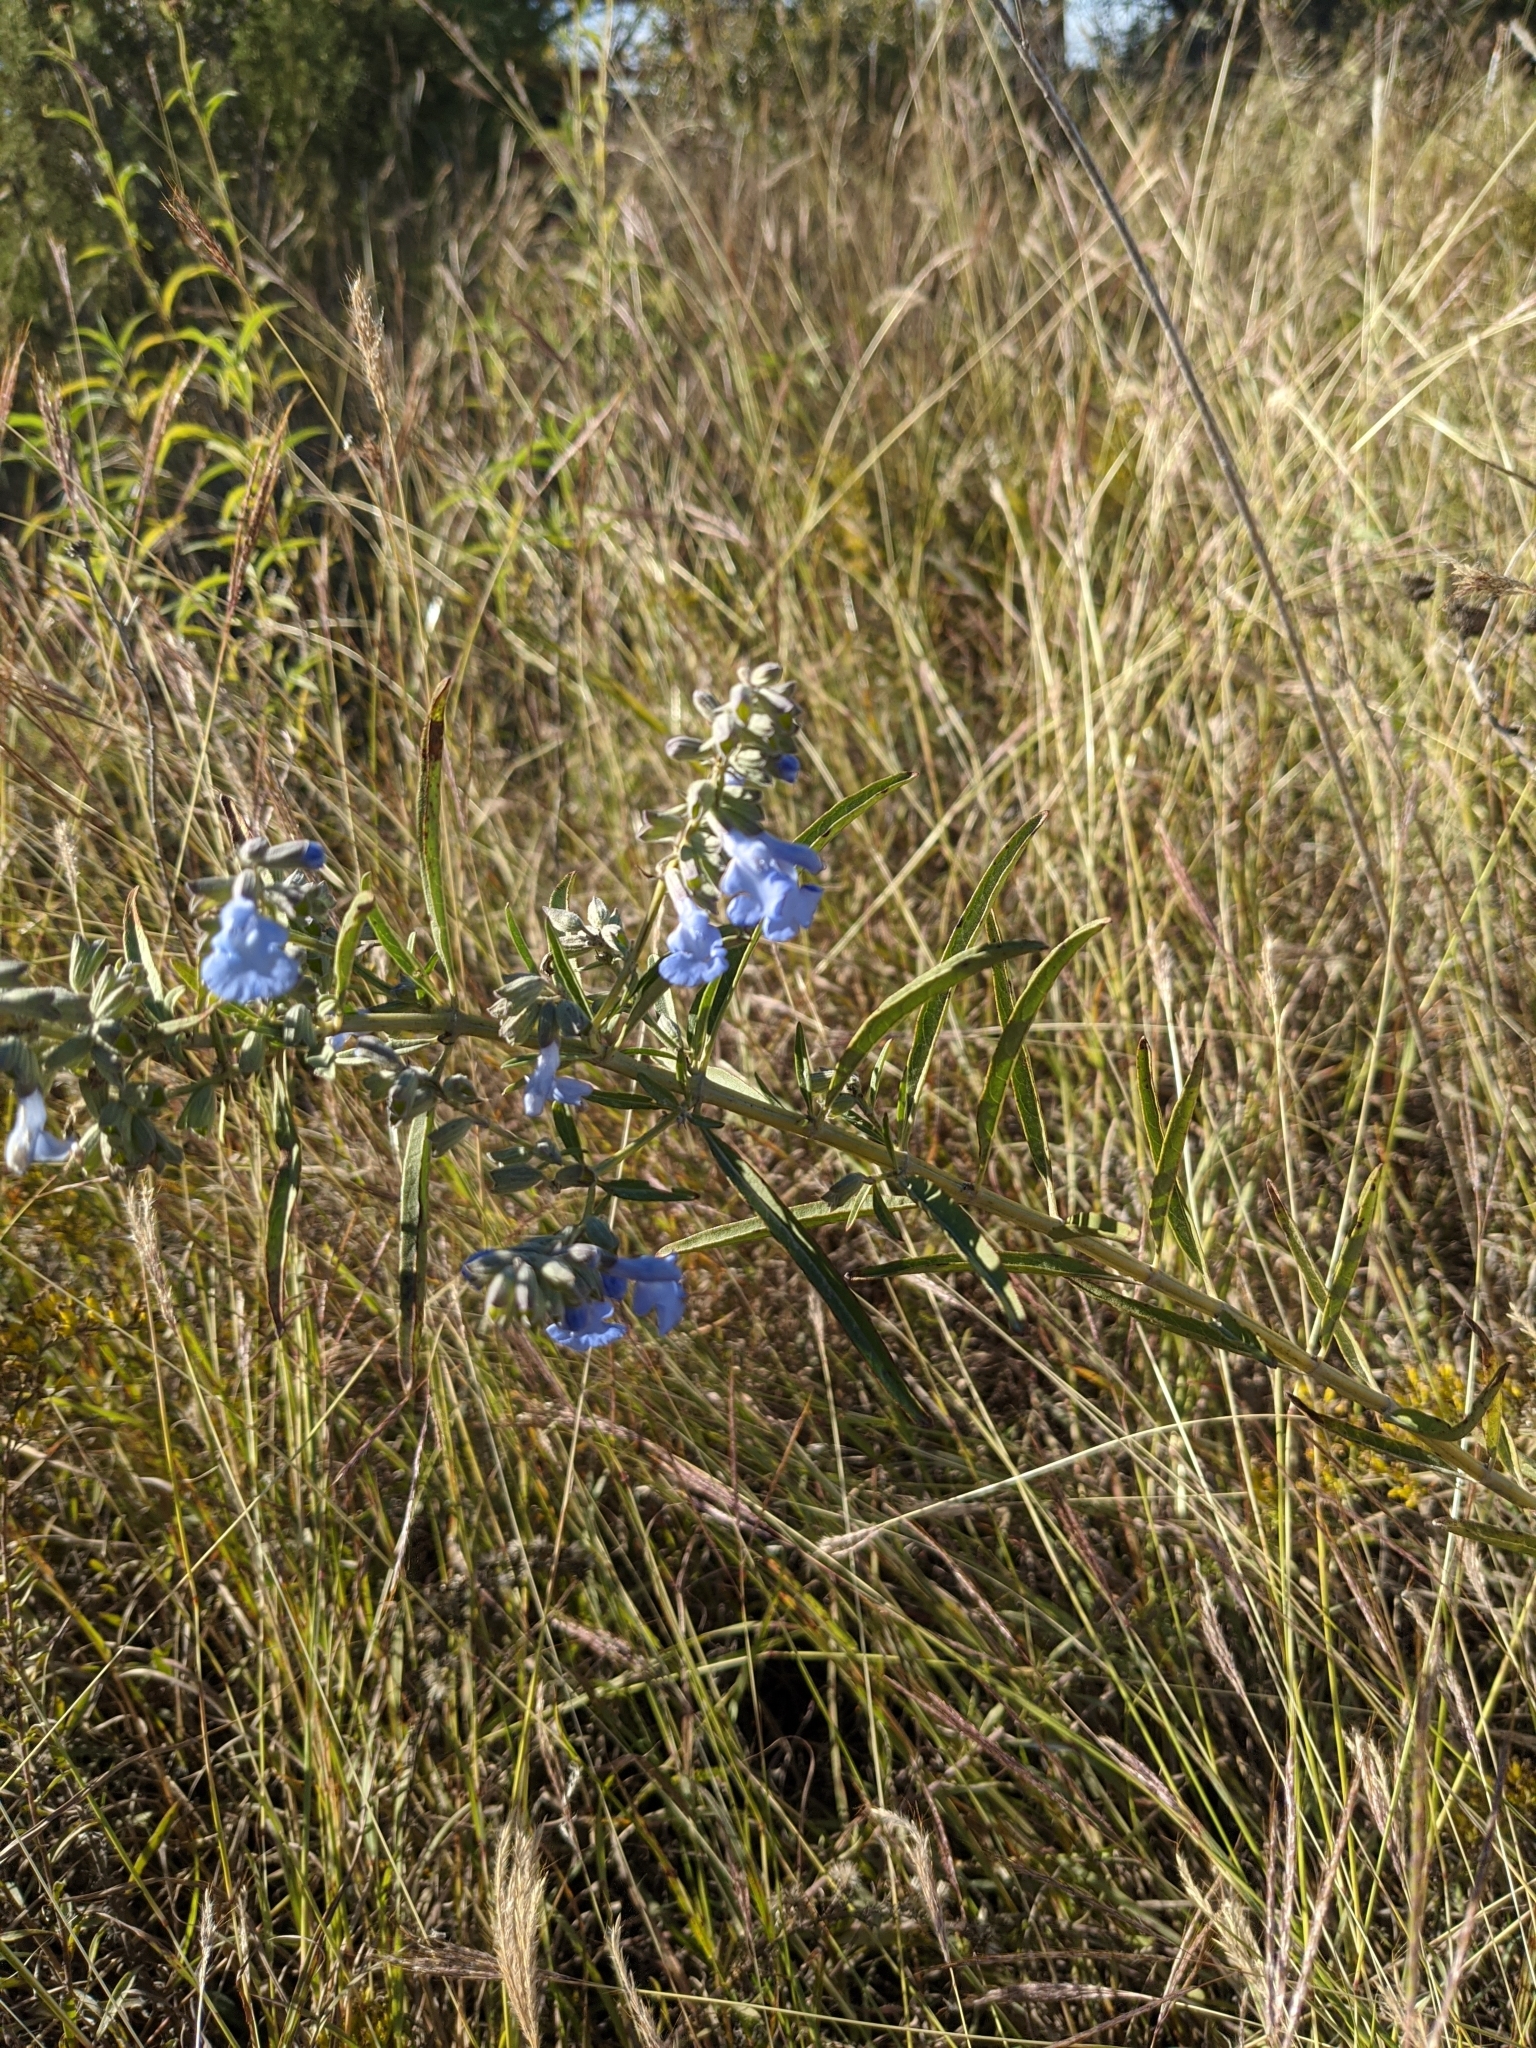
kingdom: Plantae
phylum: Tracheophyta
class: Magnoliopsida
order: Lamiales
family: Lamiaceae
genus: Salvia
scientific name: Salvia azurea
